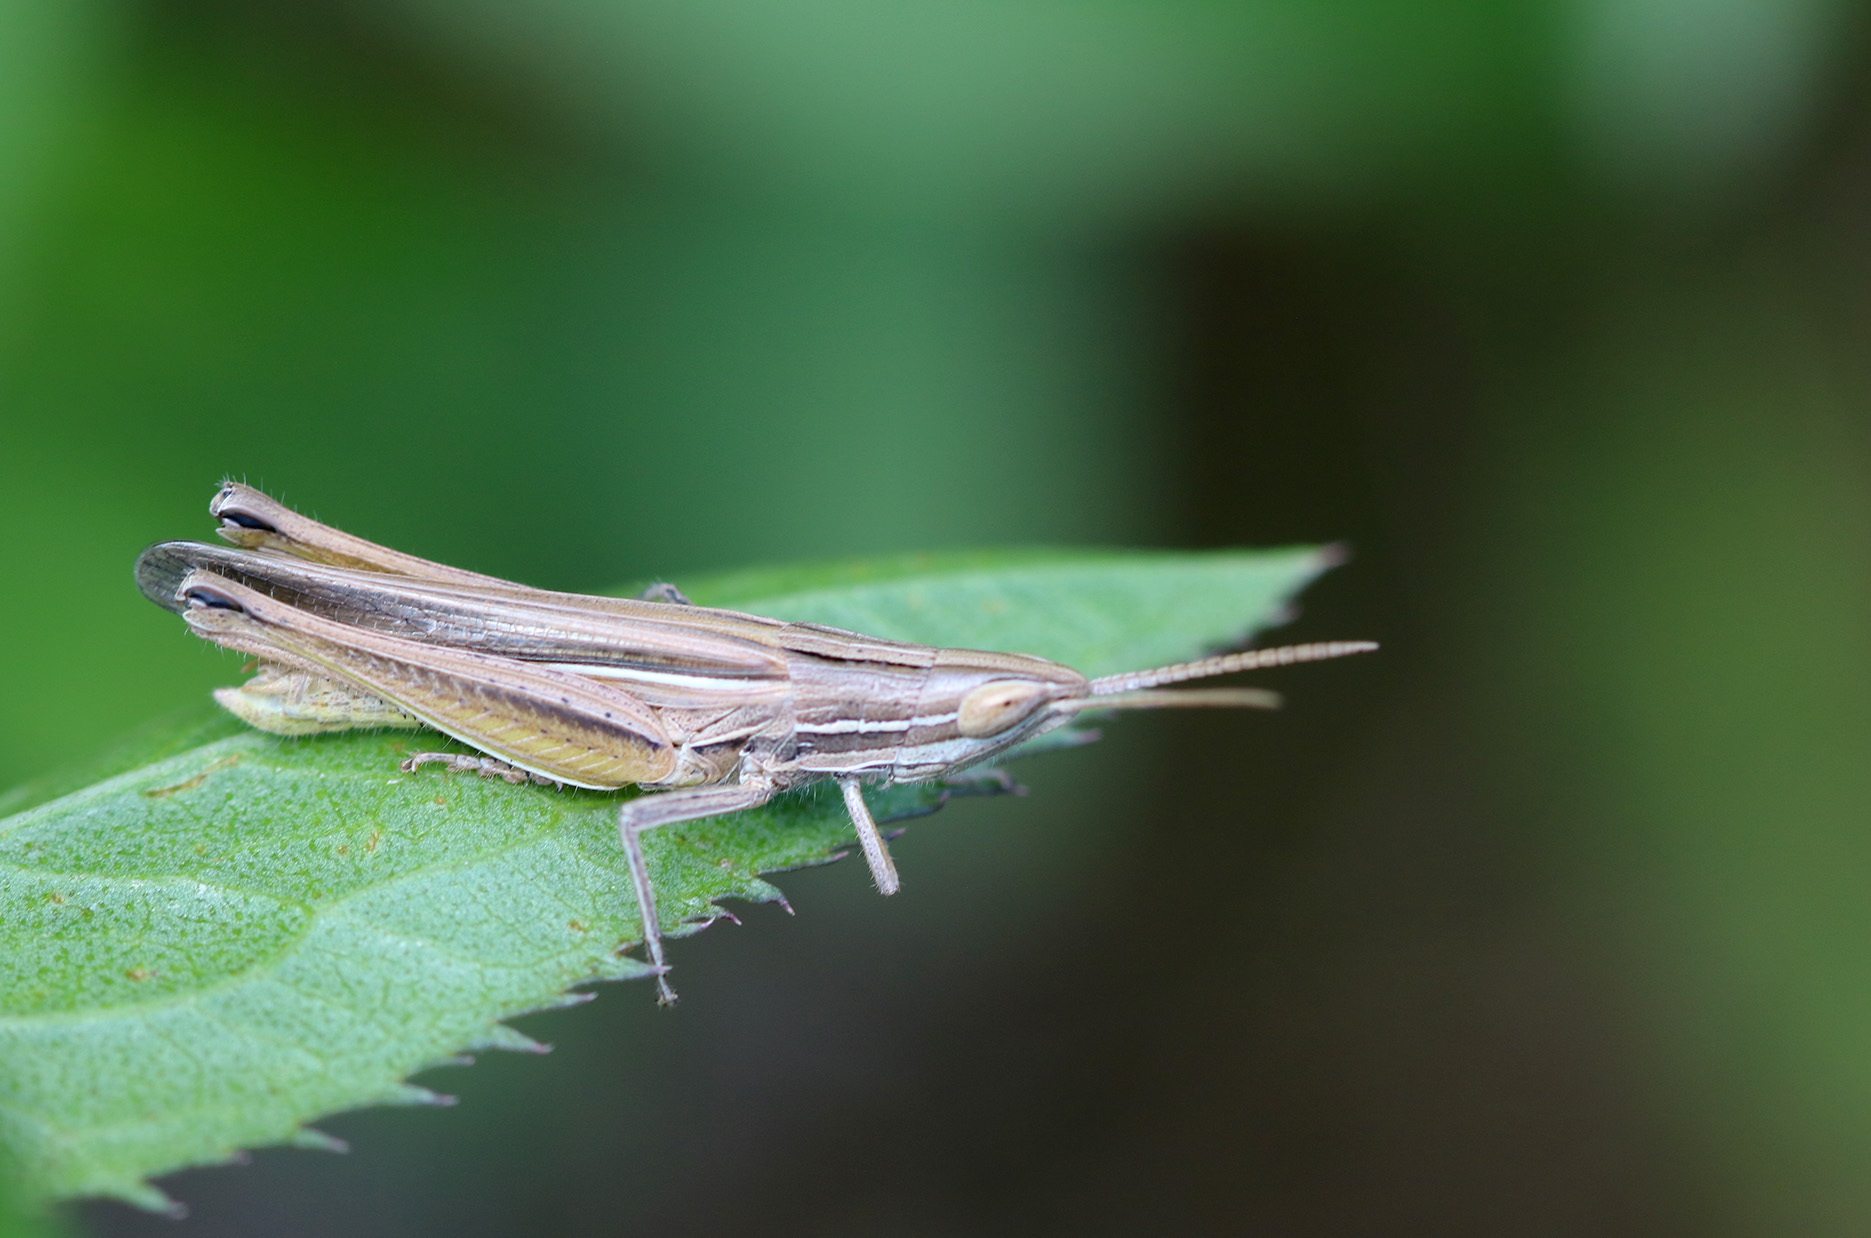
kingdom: Animalia
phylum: Arthropoda
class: Insecta
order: Orthoptera
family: Acrididae
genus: Sinipta
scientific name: Sinipta dalmani
